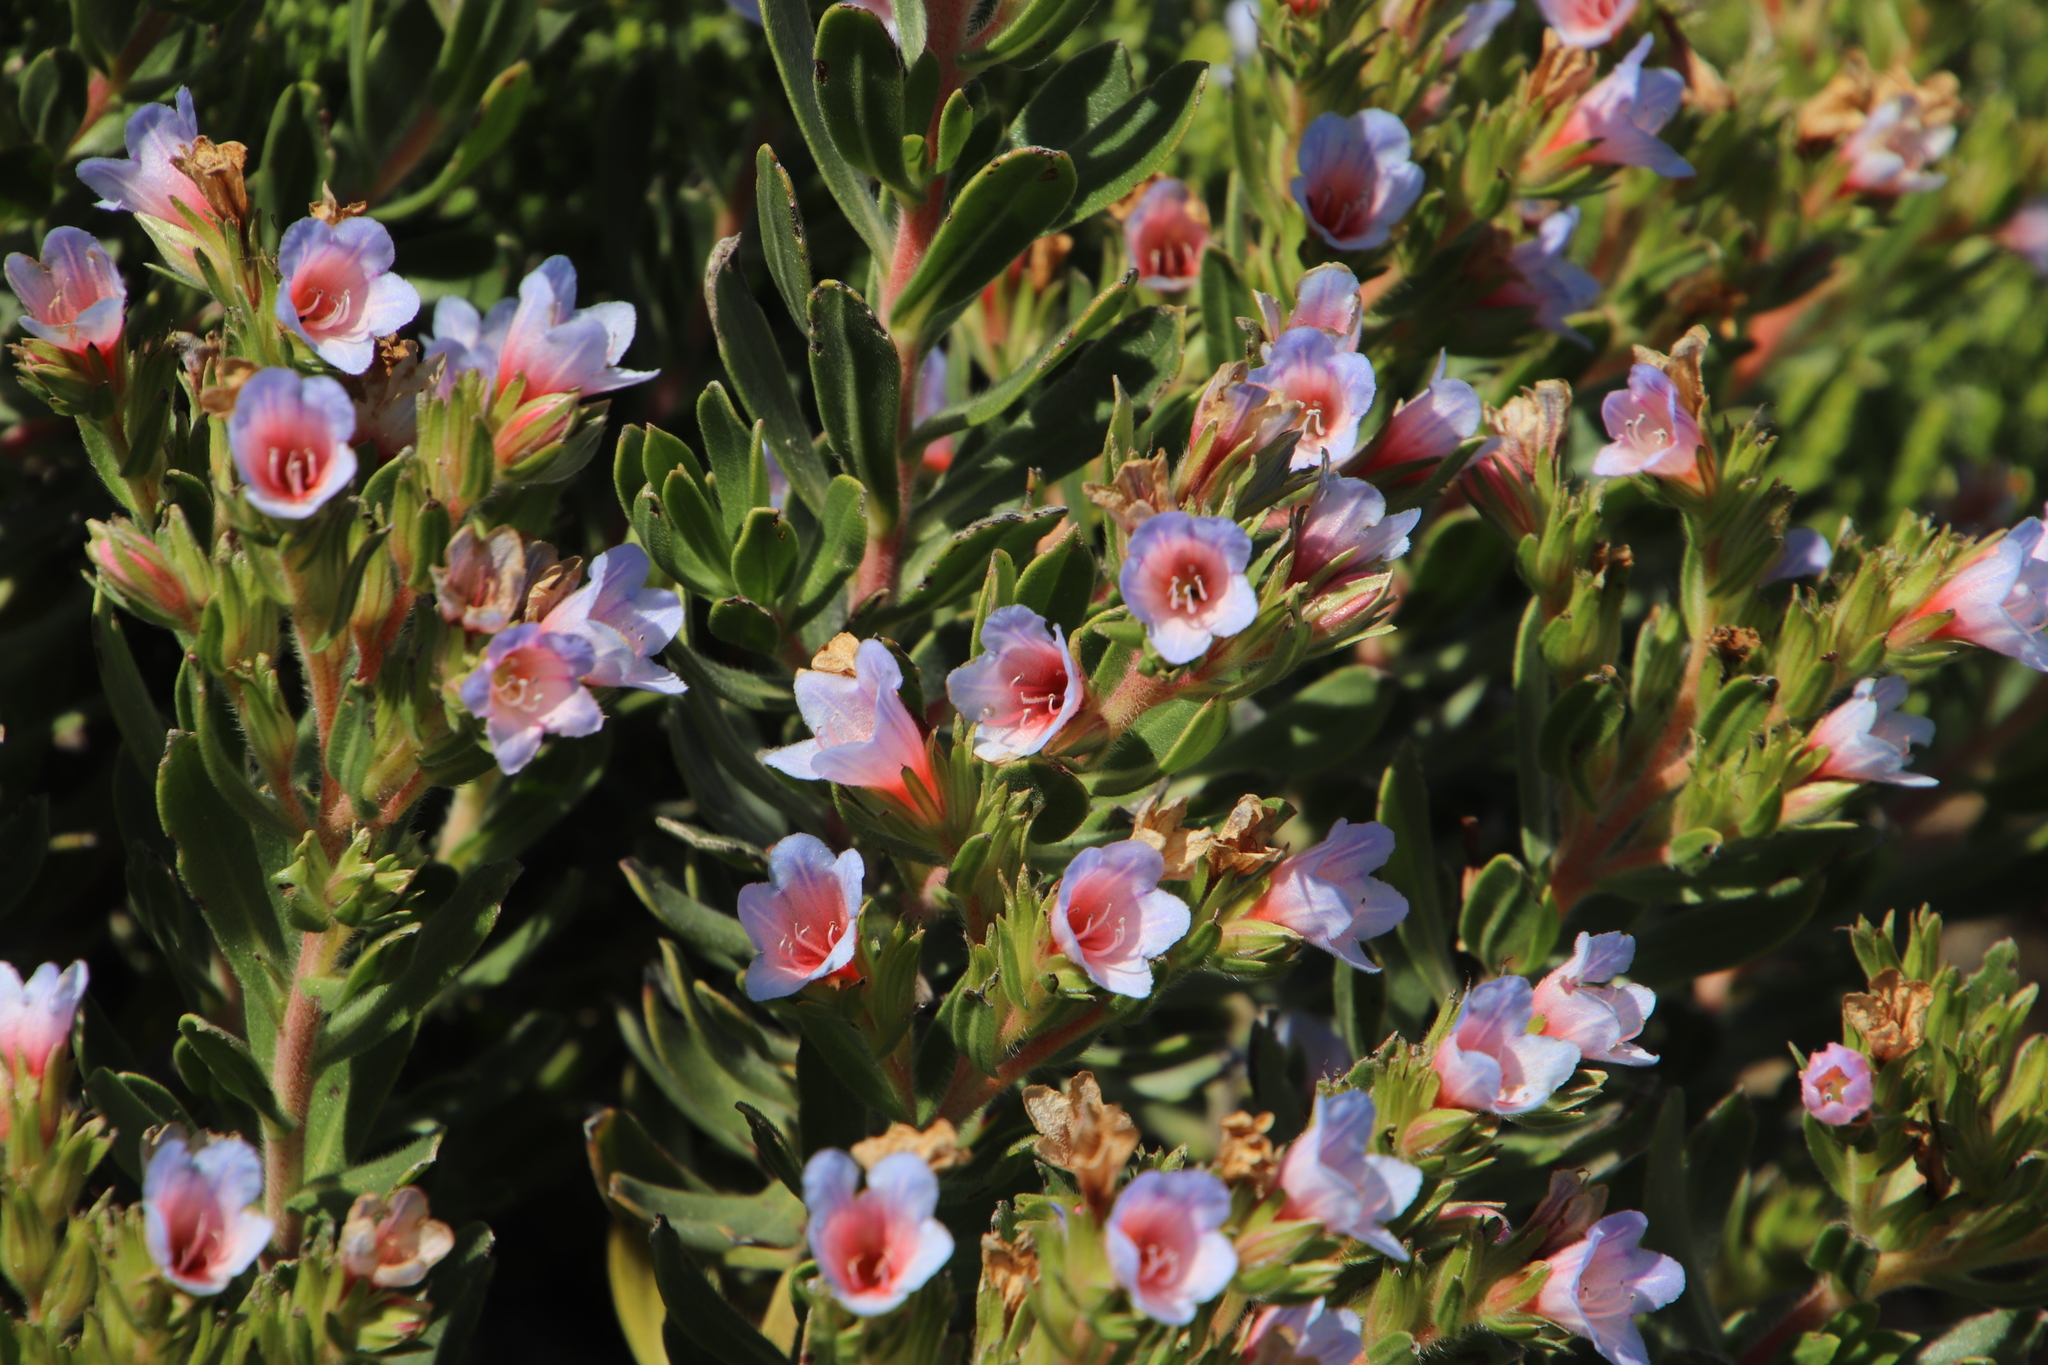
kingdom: Plantae
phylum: Tracheophyta
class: Magnoliopsida
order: Boraginales
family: Boraginaceae
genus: Lobostemon
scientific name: Lobostemon fruticosus
